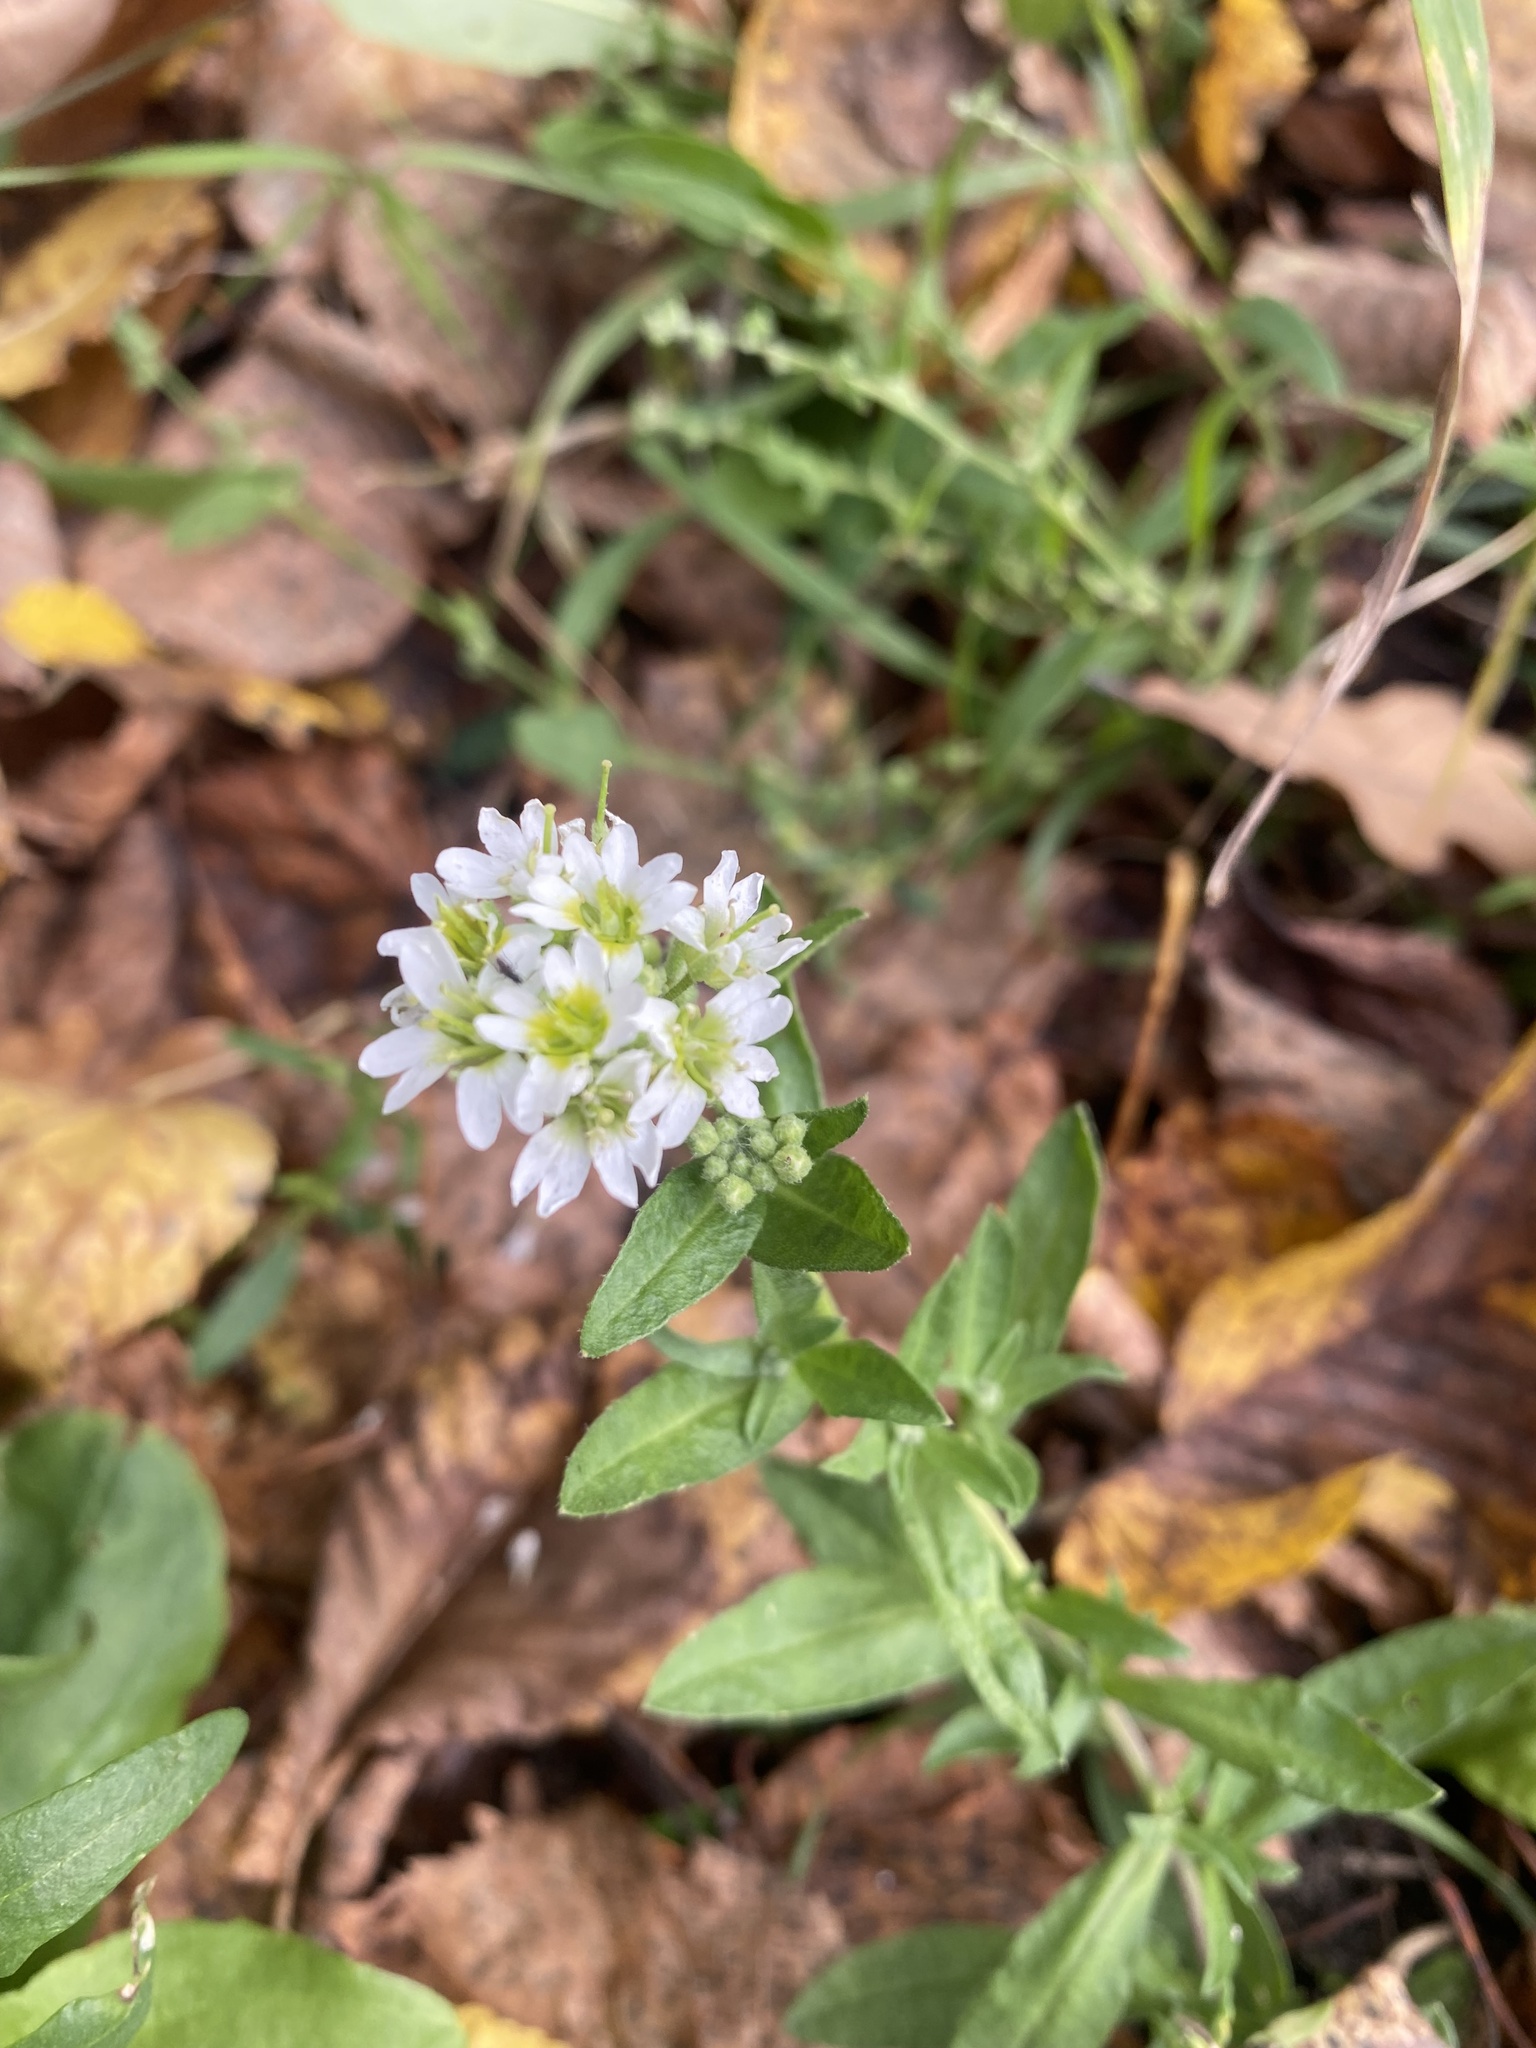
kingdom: Plantae
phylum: Tracheophyta
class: Magnoliopsida
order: Brassicales
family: Brassicaceae
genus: Berteroa
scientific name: Berteroa incana
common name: Hoary alison
